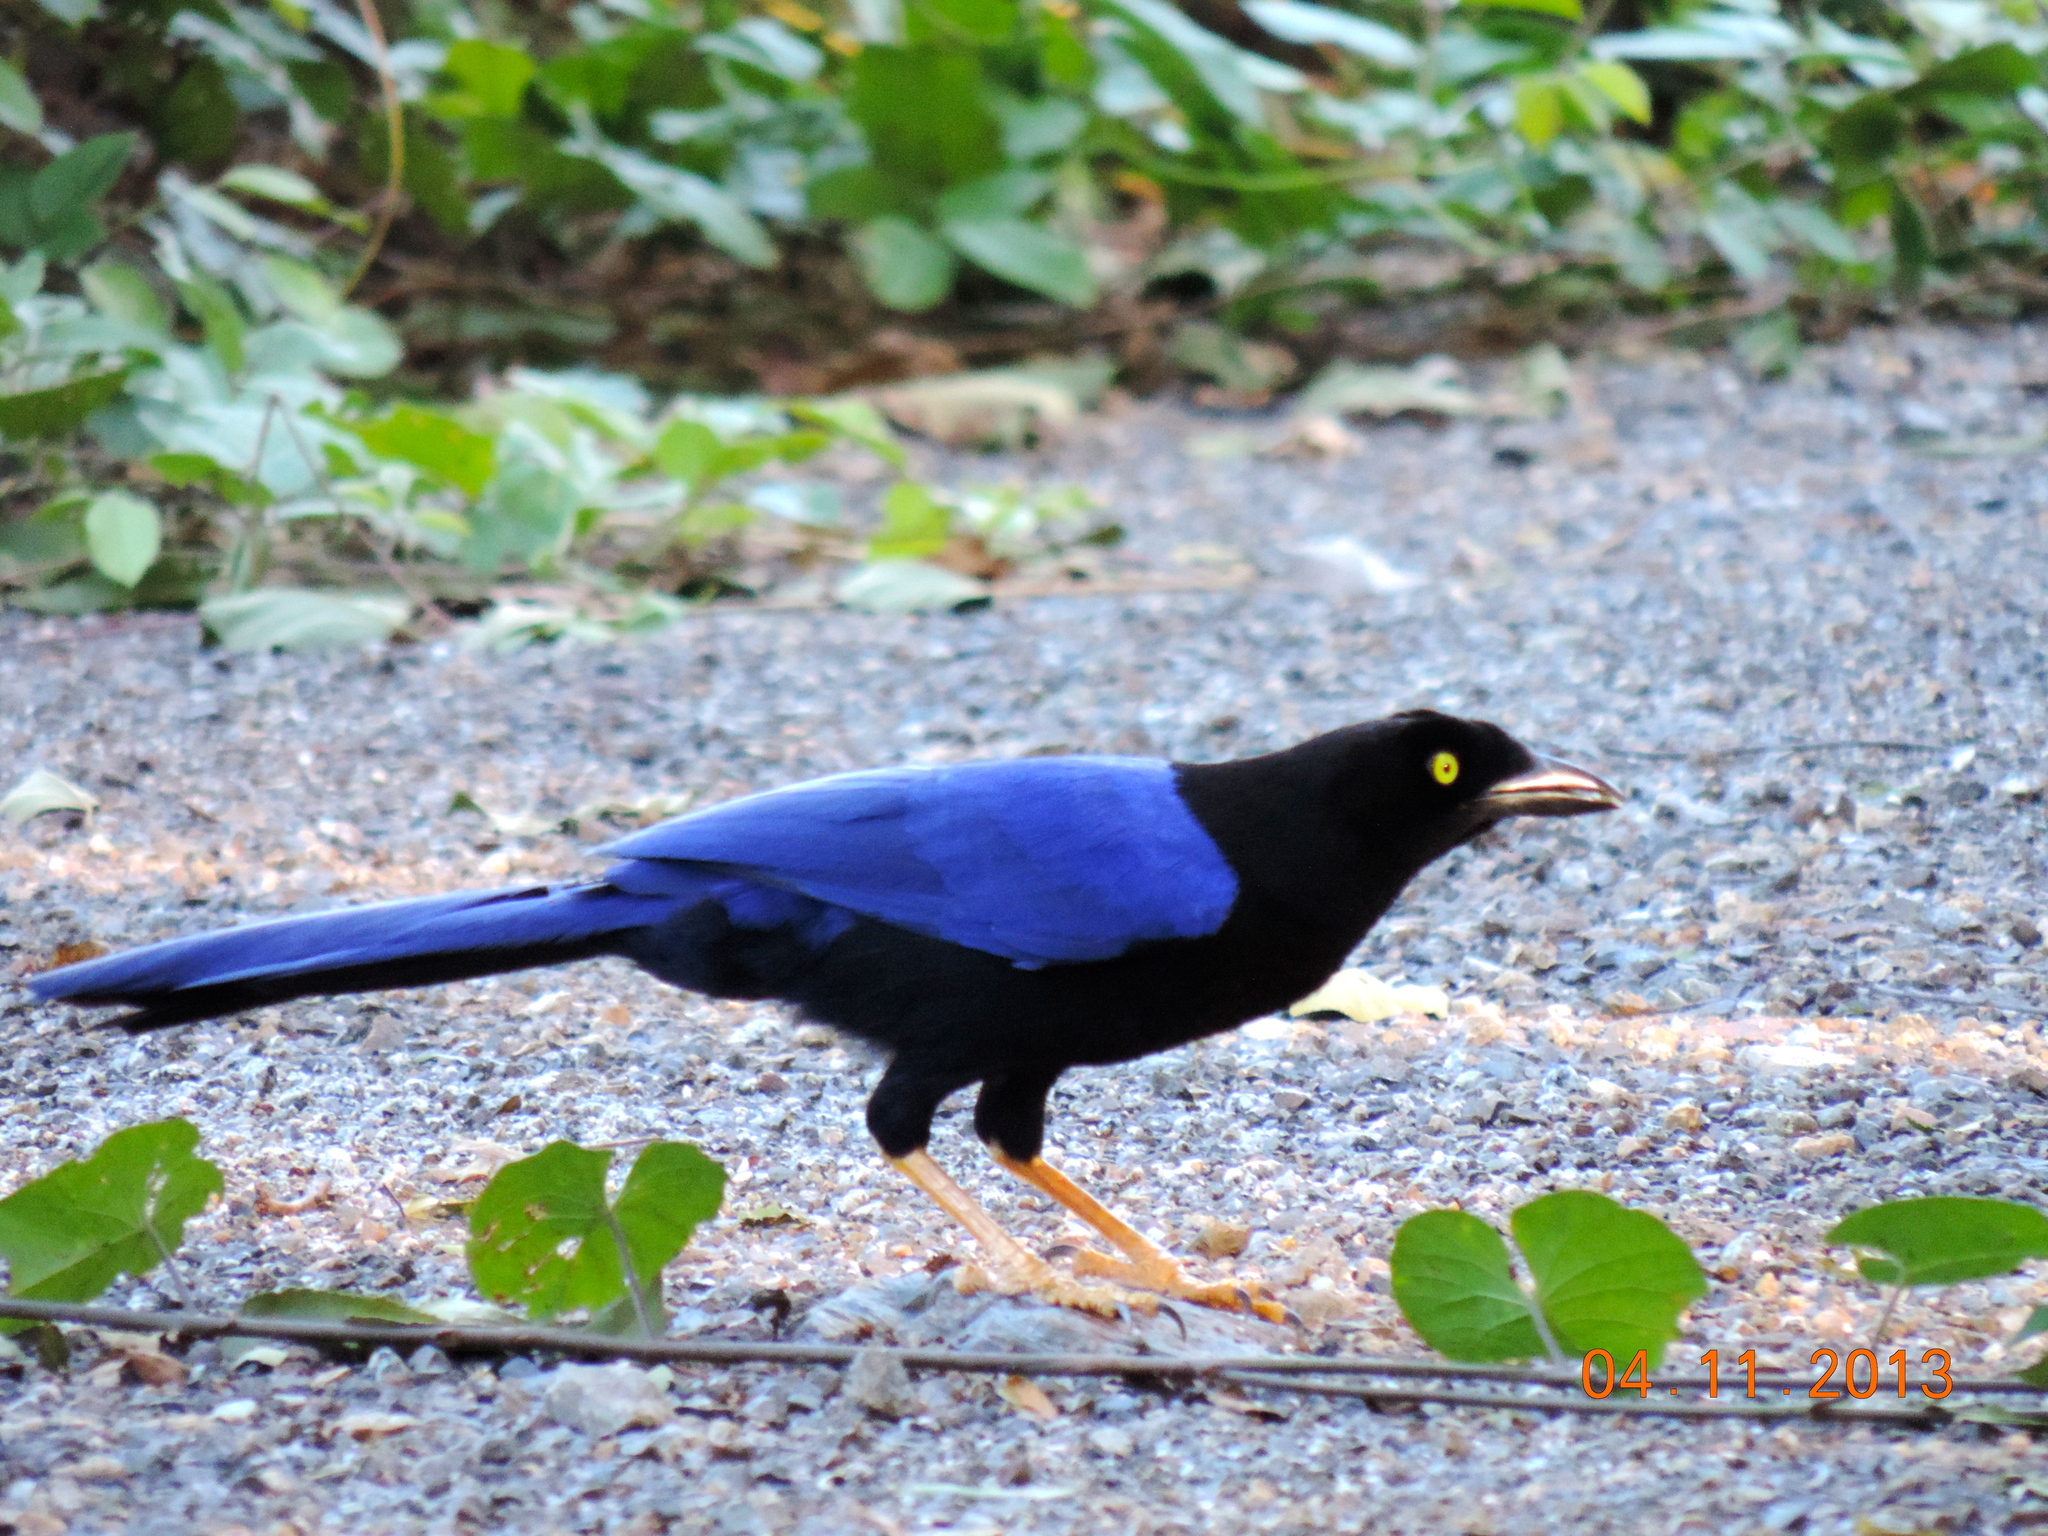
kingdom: Animalia
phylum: Chordata
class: Aves
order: Passeriformes
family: Corvidae
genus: Cyanocorax
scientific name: Cyanocorax beecheii
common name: Purplish-backed jay
